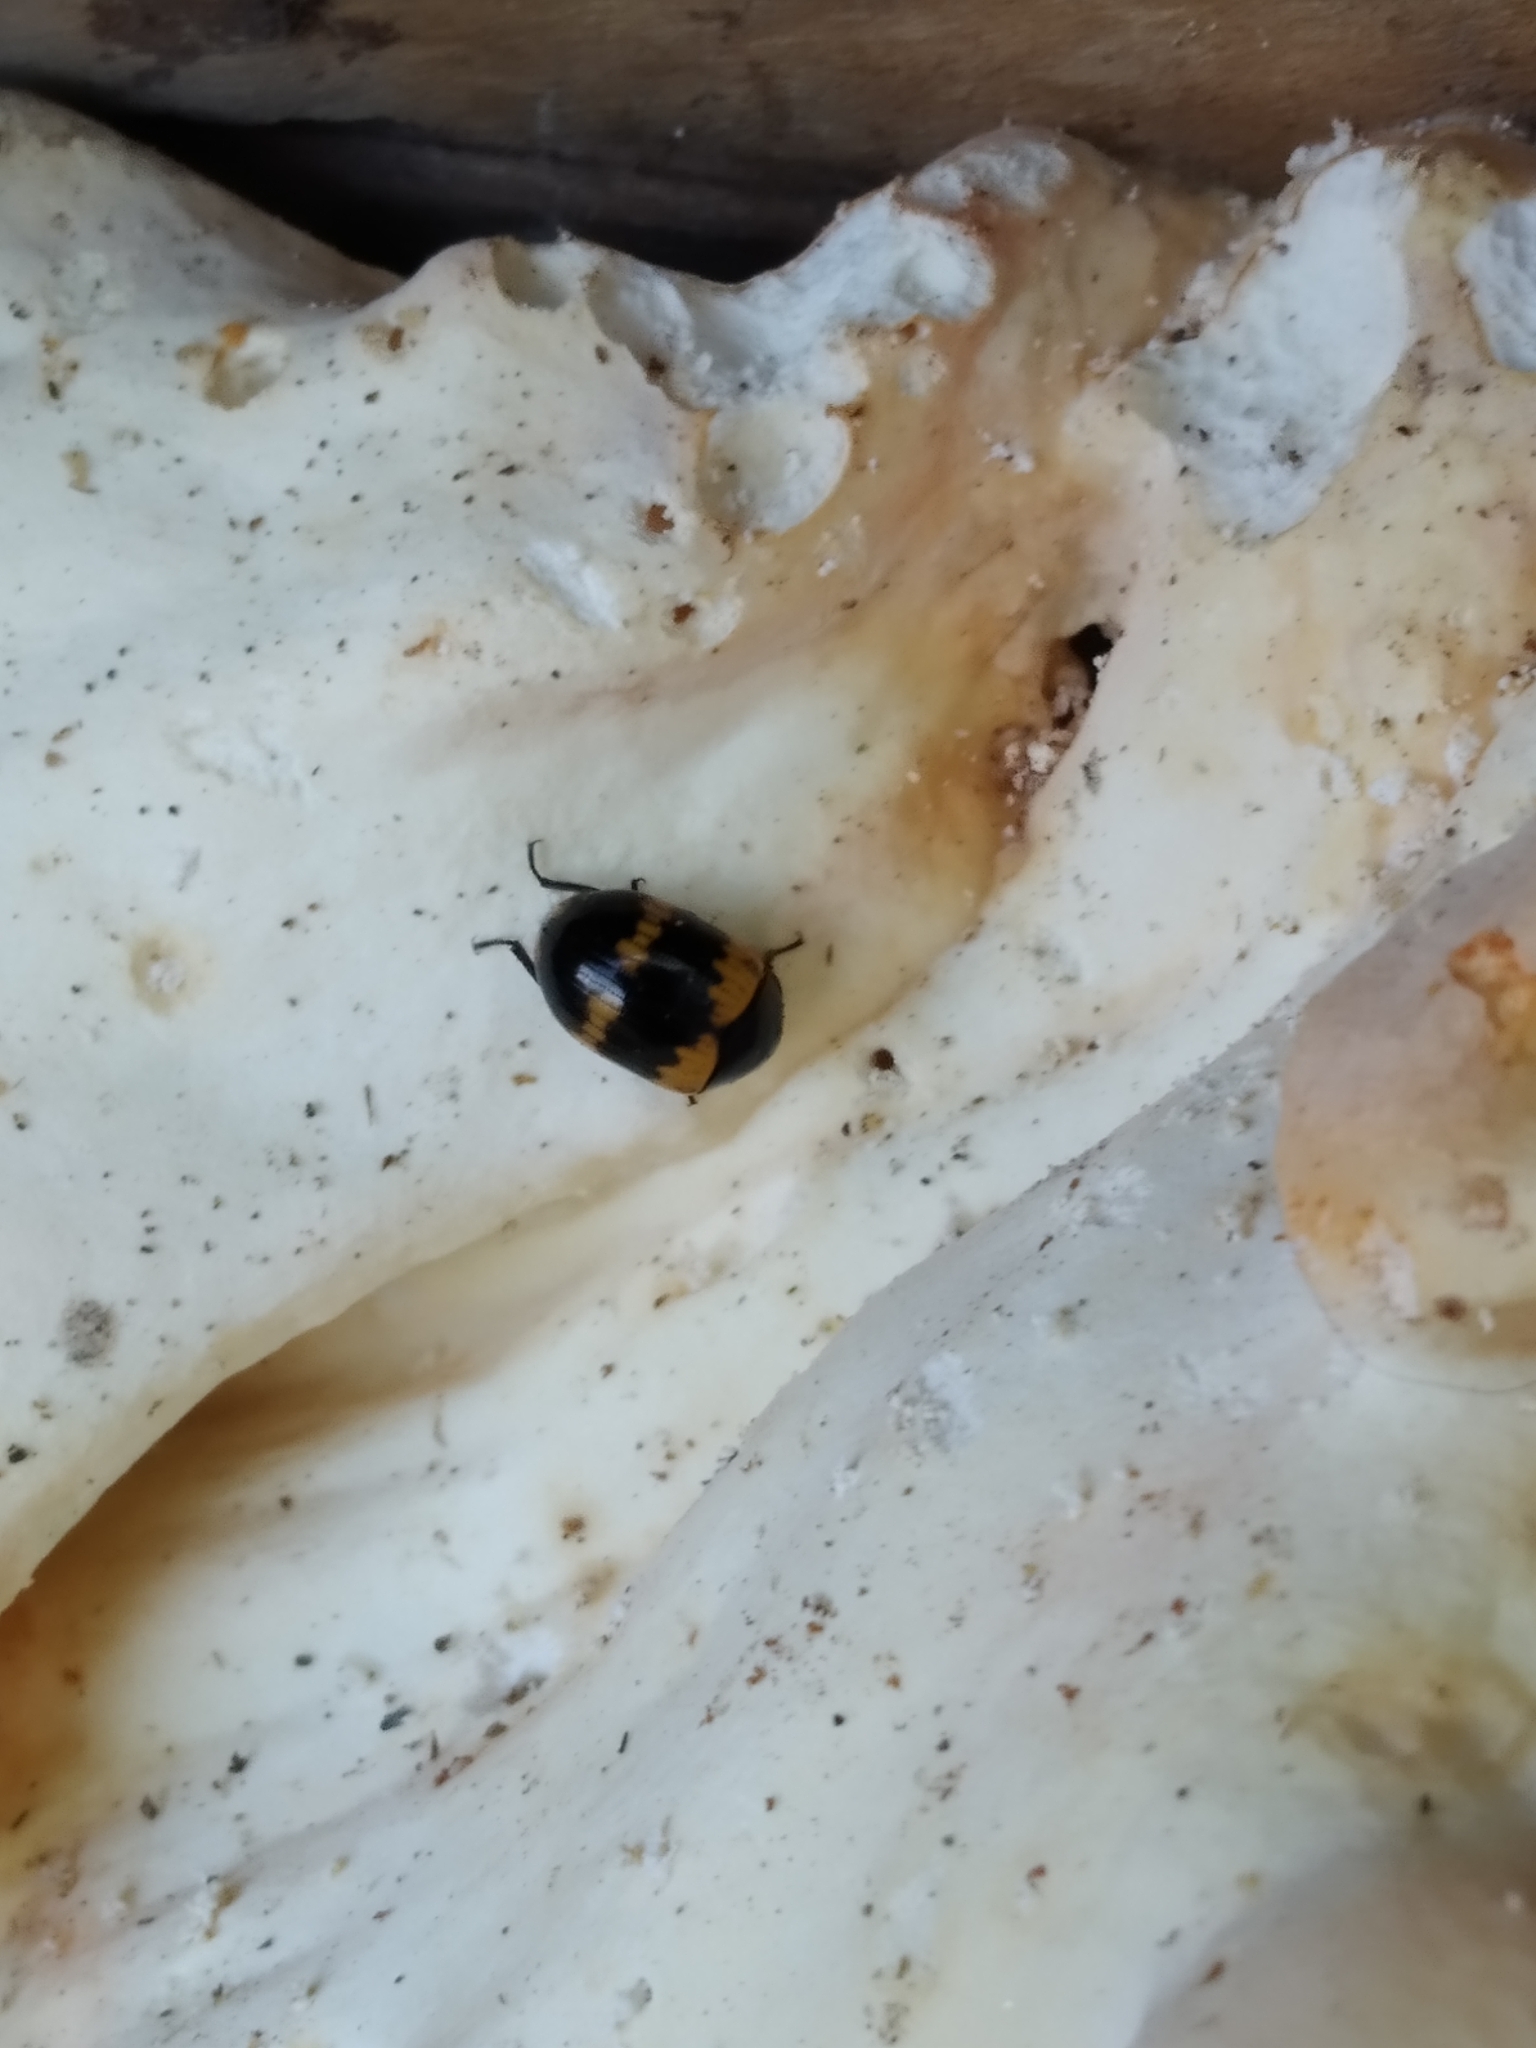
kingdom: Animalia
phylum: Arthropoda
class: Insecta
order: Coleoptera
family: Tenebrionidae
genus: Diaperis
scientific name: Diaperis boleti
